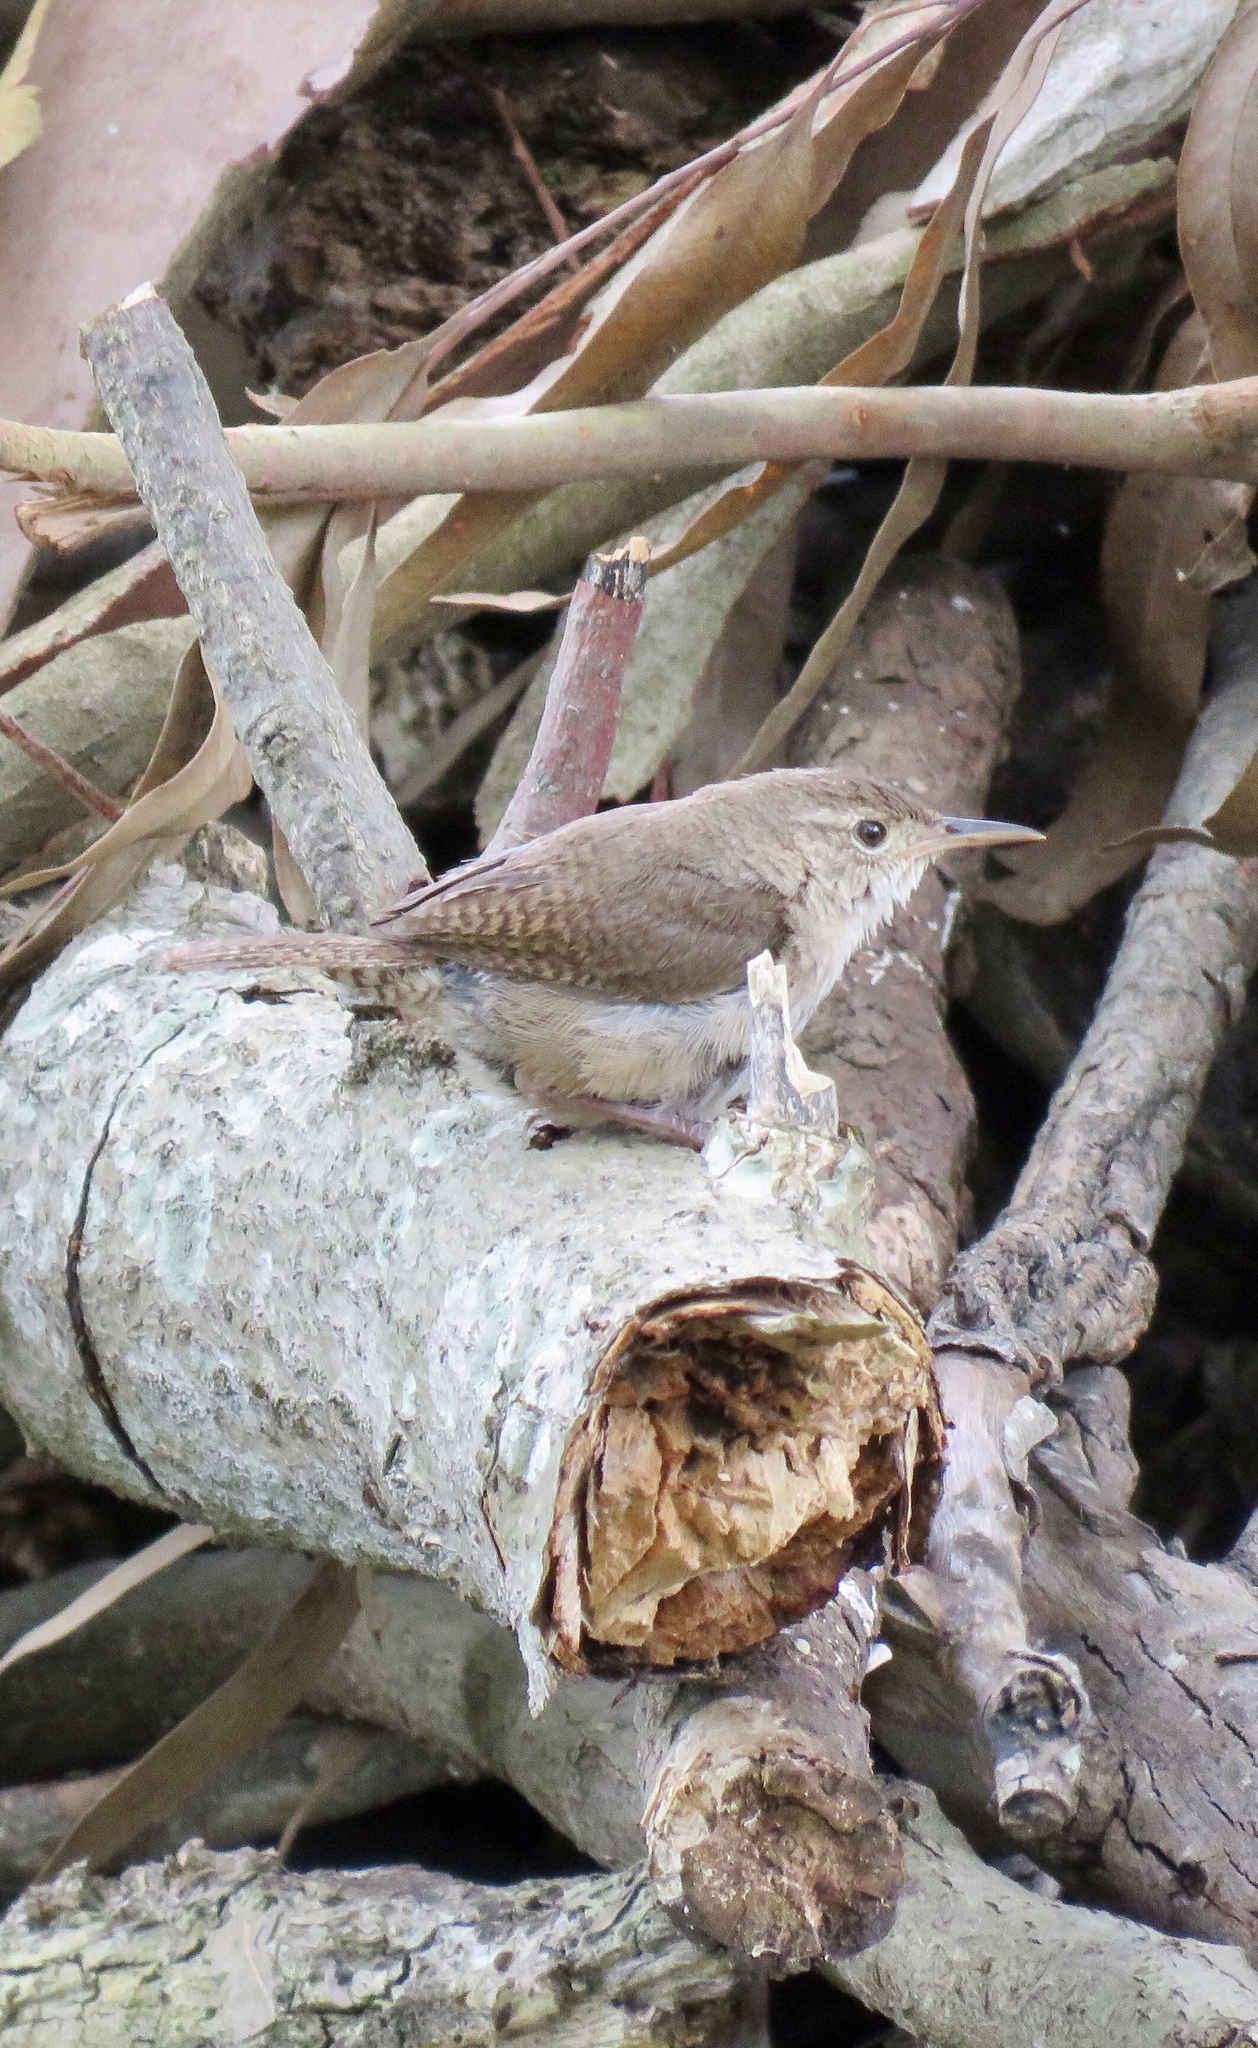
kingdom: Animalia
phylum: Chordata
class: Aves
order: Passeriformes
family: Troglodytidae
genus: Troglodytes
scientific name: Troglodytes aedon
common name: House wren
